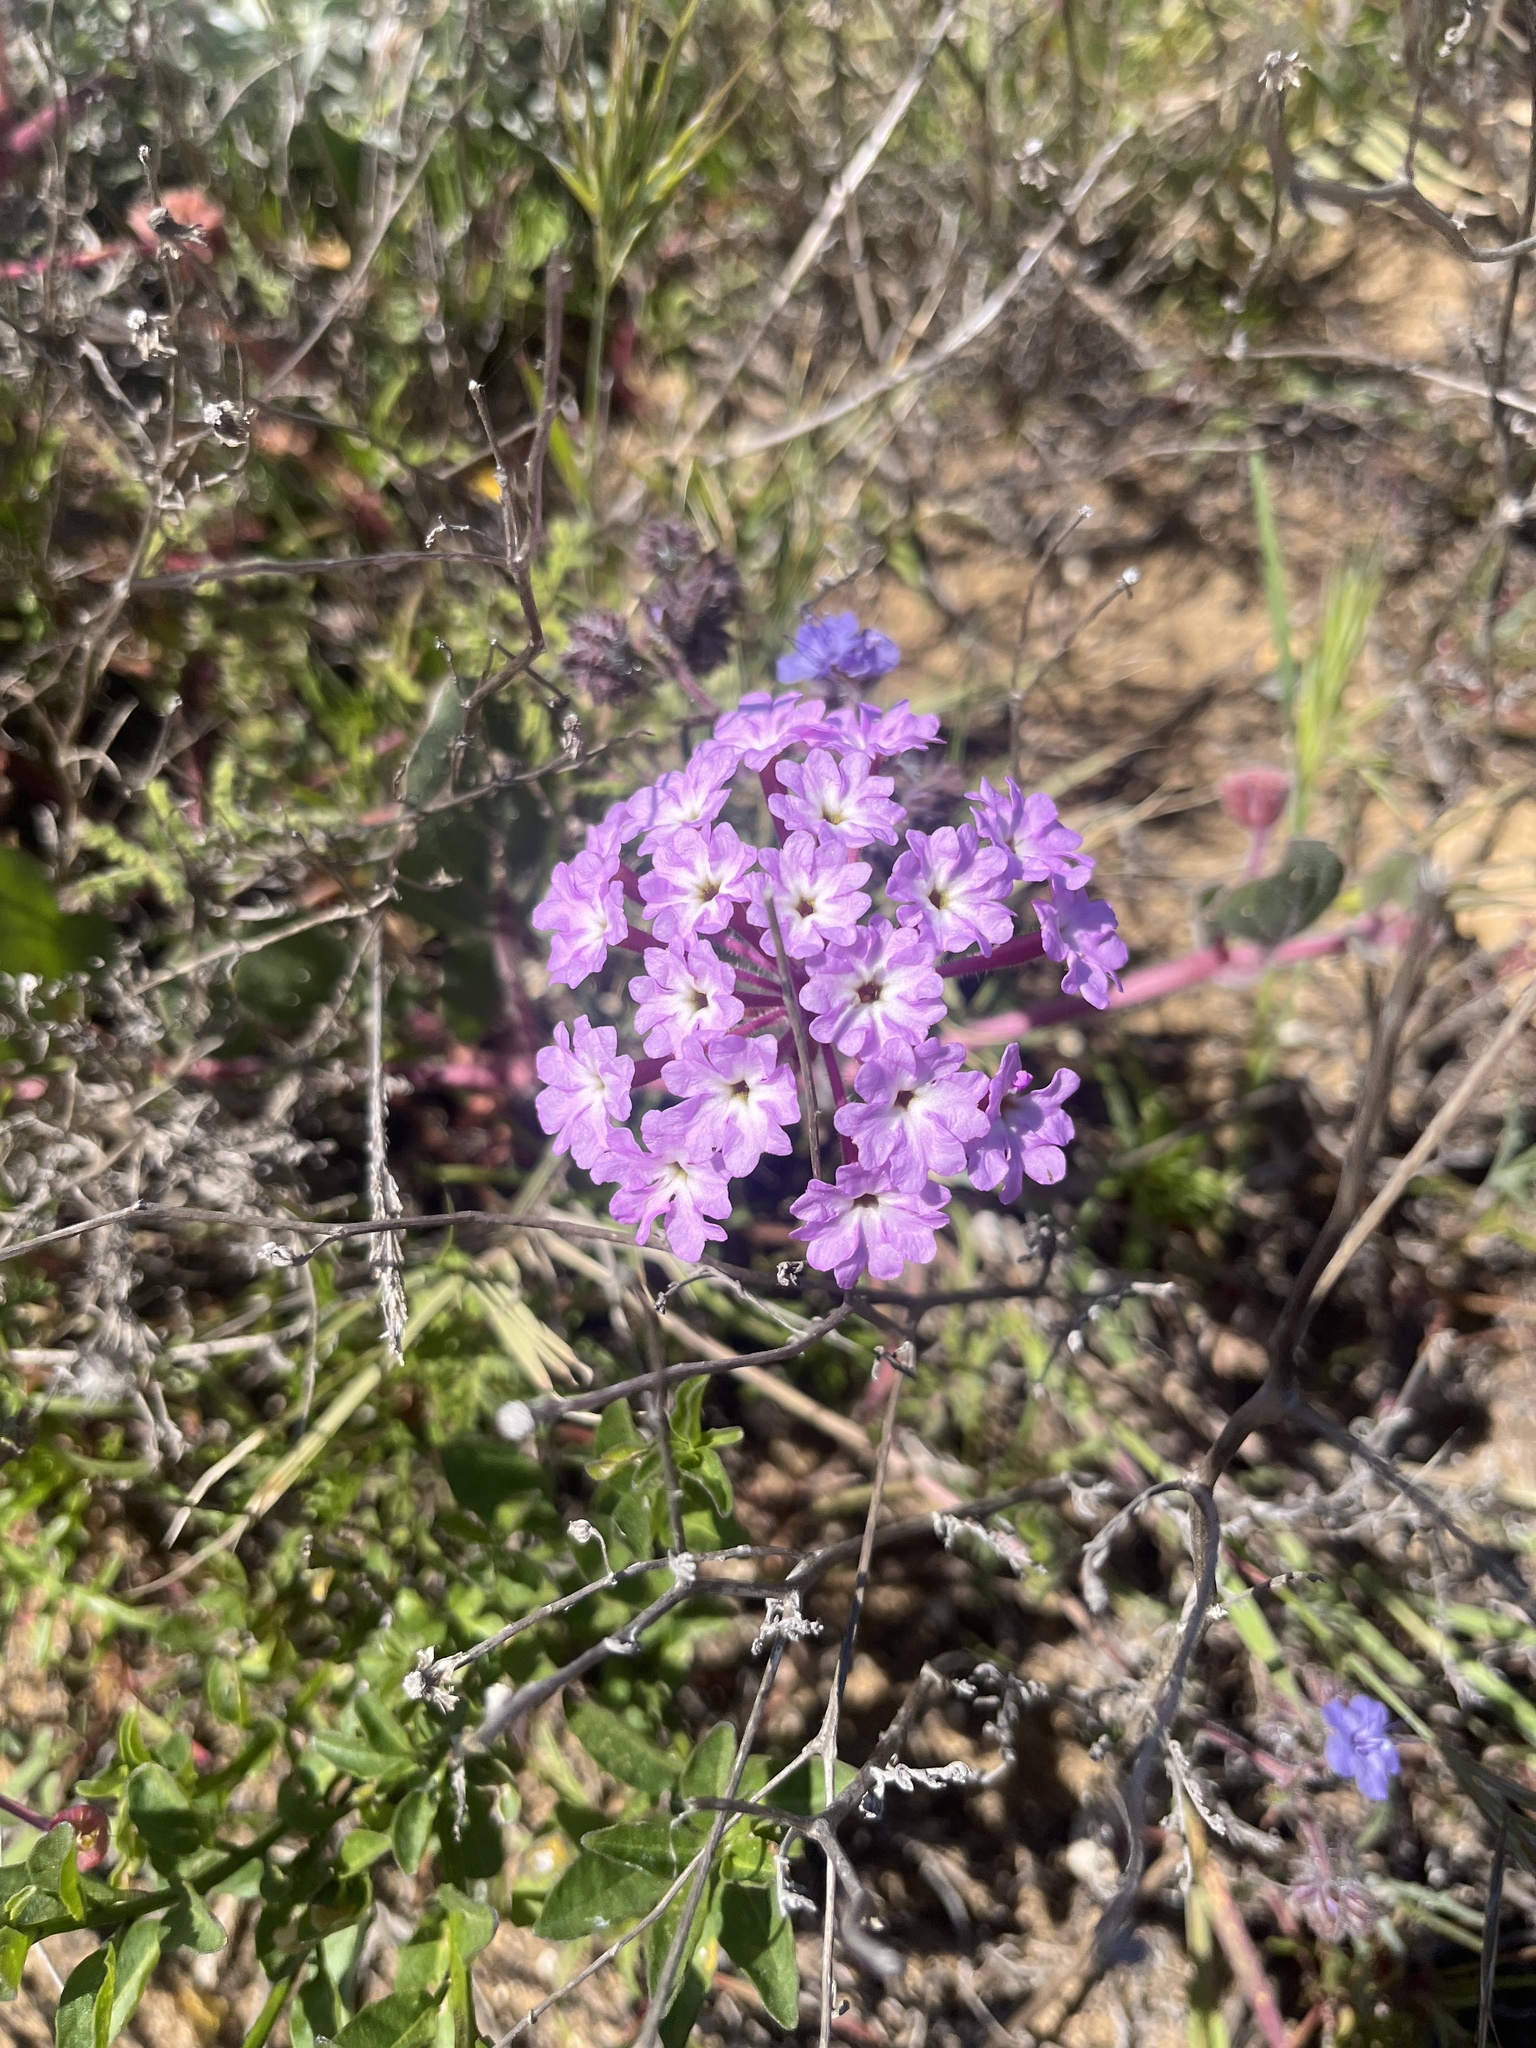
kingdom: Plantae
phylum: Tracheophyta
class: Magnoliopsida
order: Caryophyllales
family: Nyctaginaceae
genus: Abronia
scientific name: Abronia umbellata
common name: Sand-verbena
